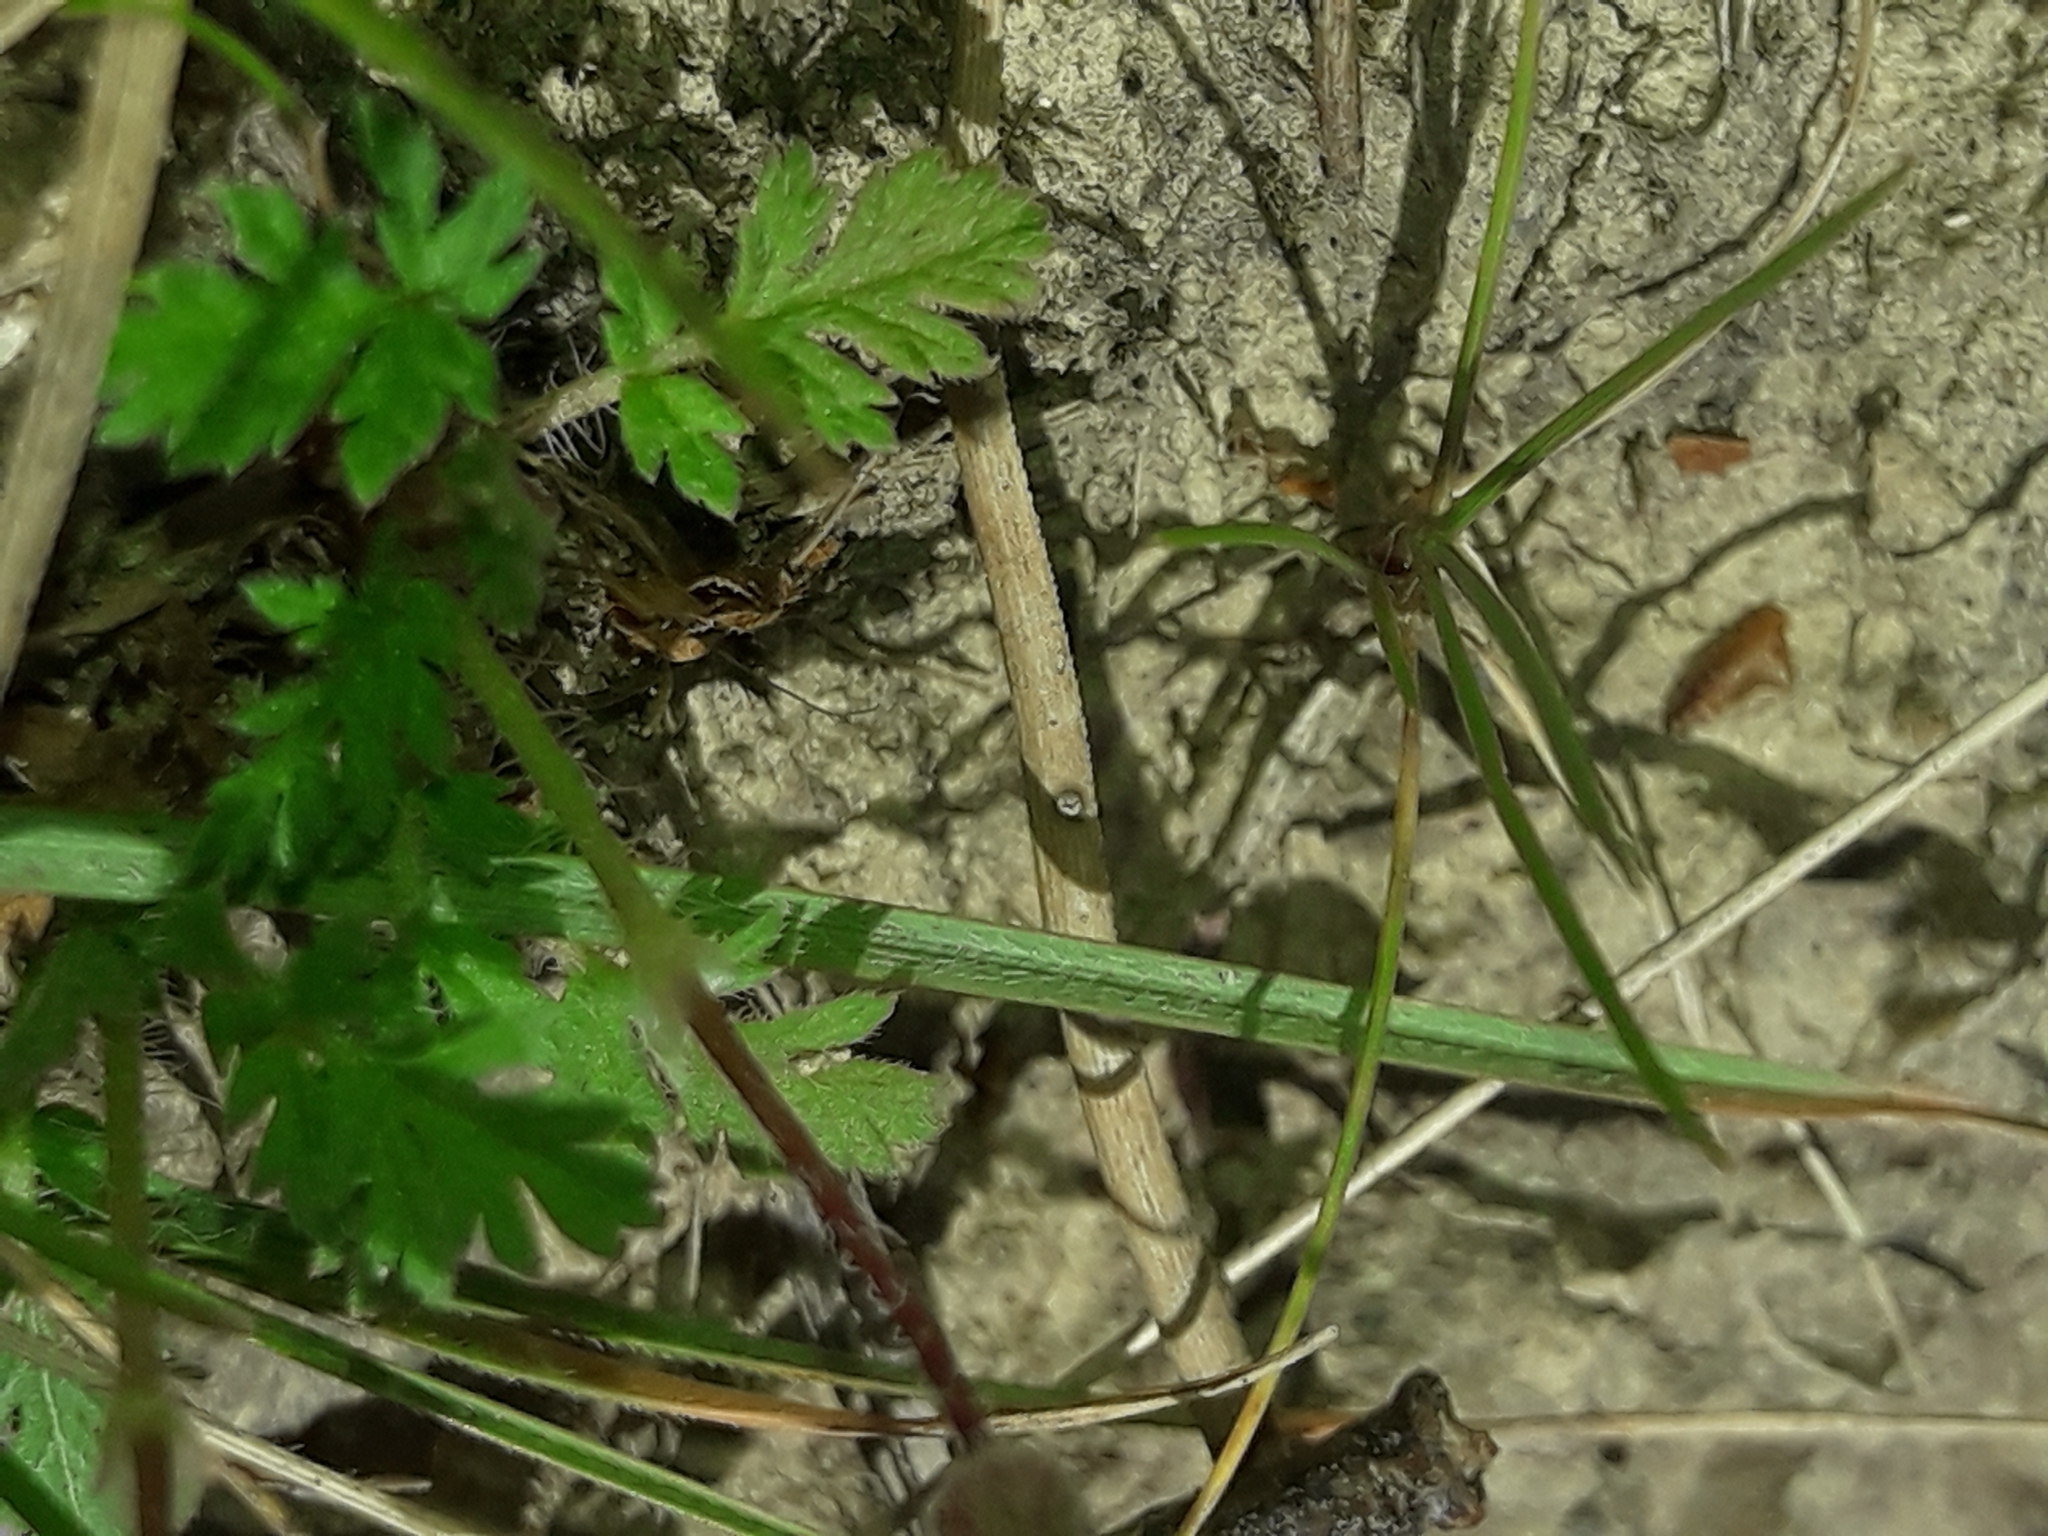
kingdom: Plantae
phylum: Tracheophyta
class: Magnoliopsida
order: Geraniales
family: Geraniaceae
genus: Erodium
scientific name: Erodium cicutarium
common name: Common stork's-bill
